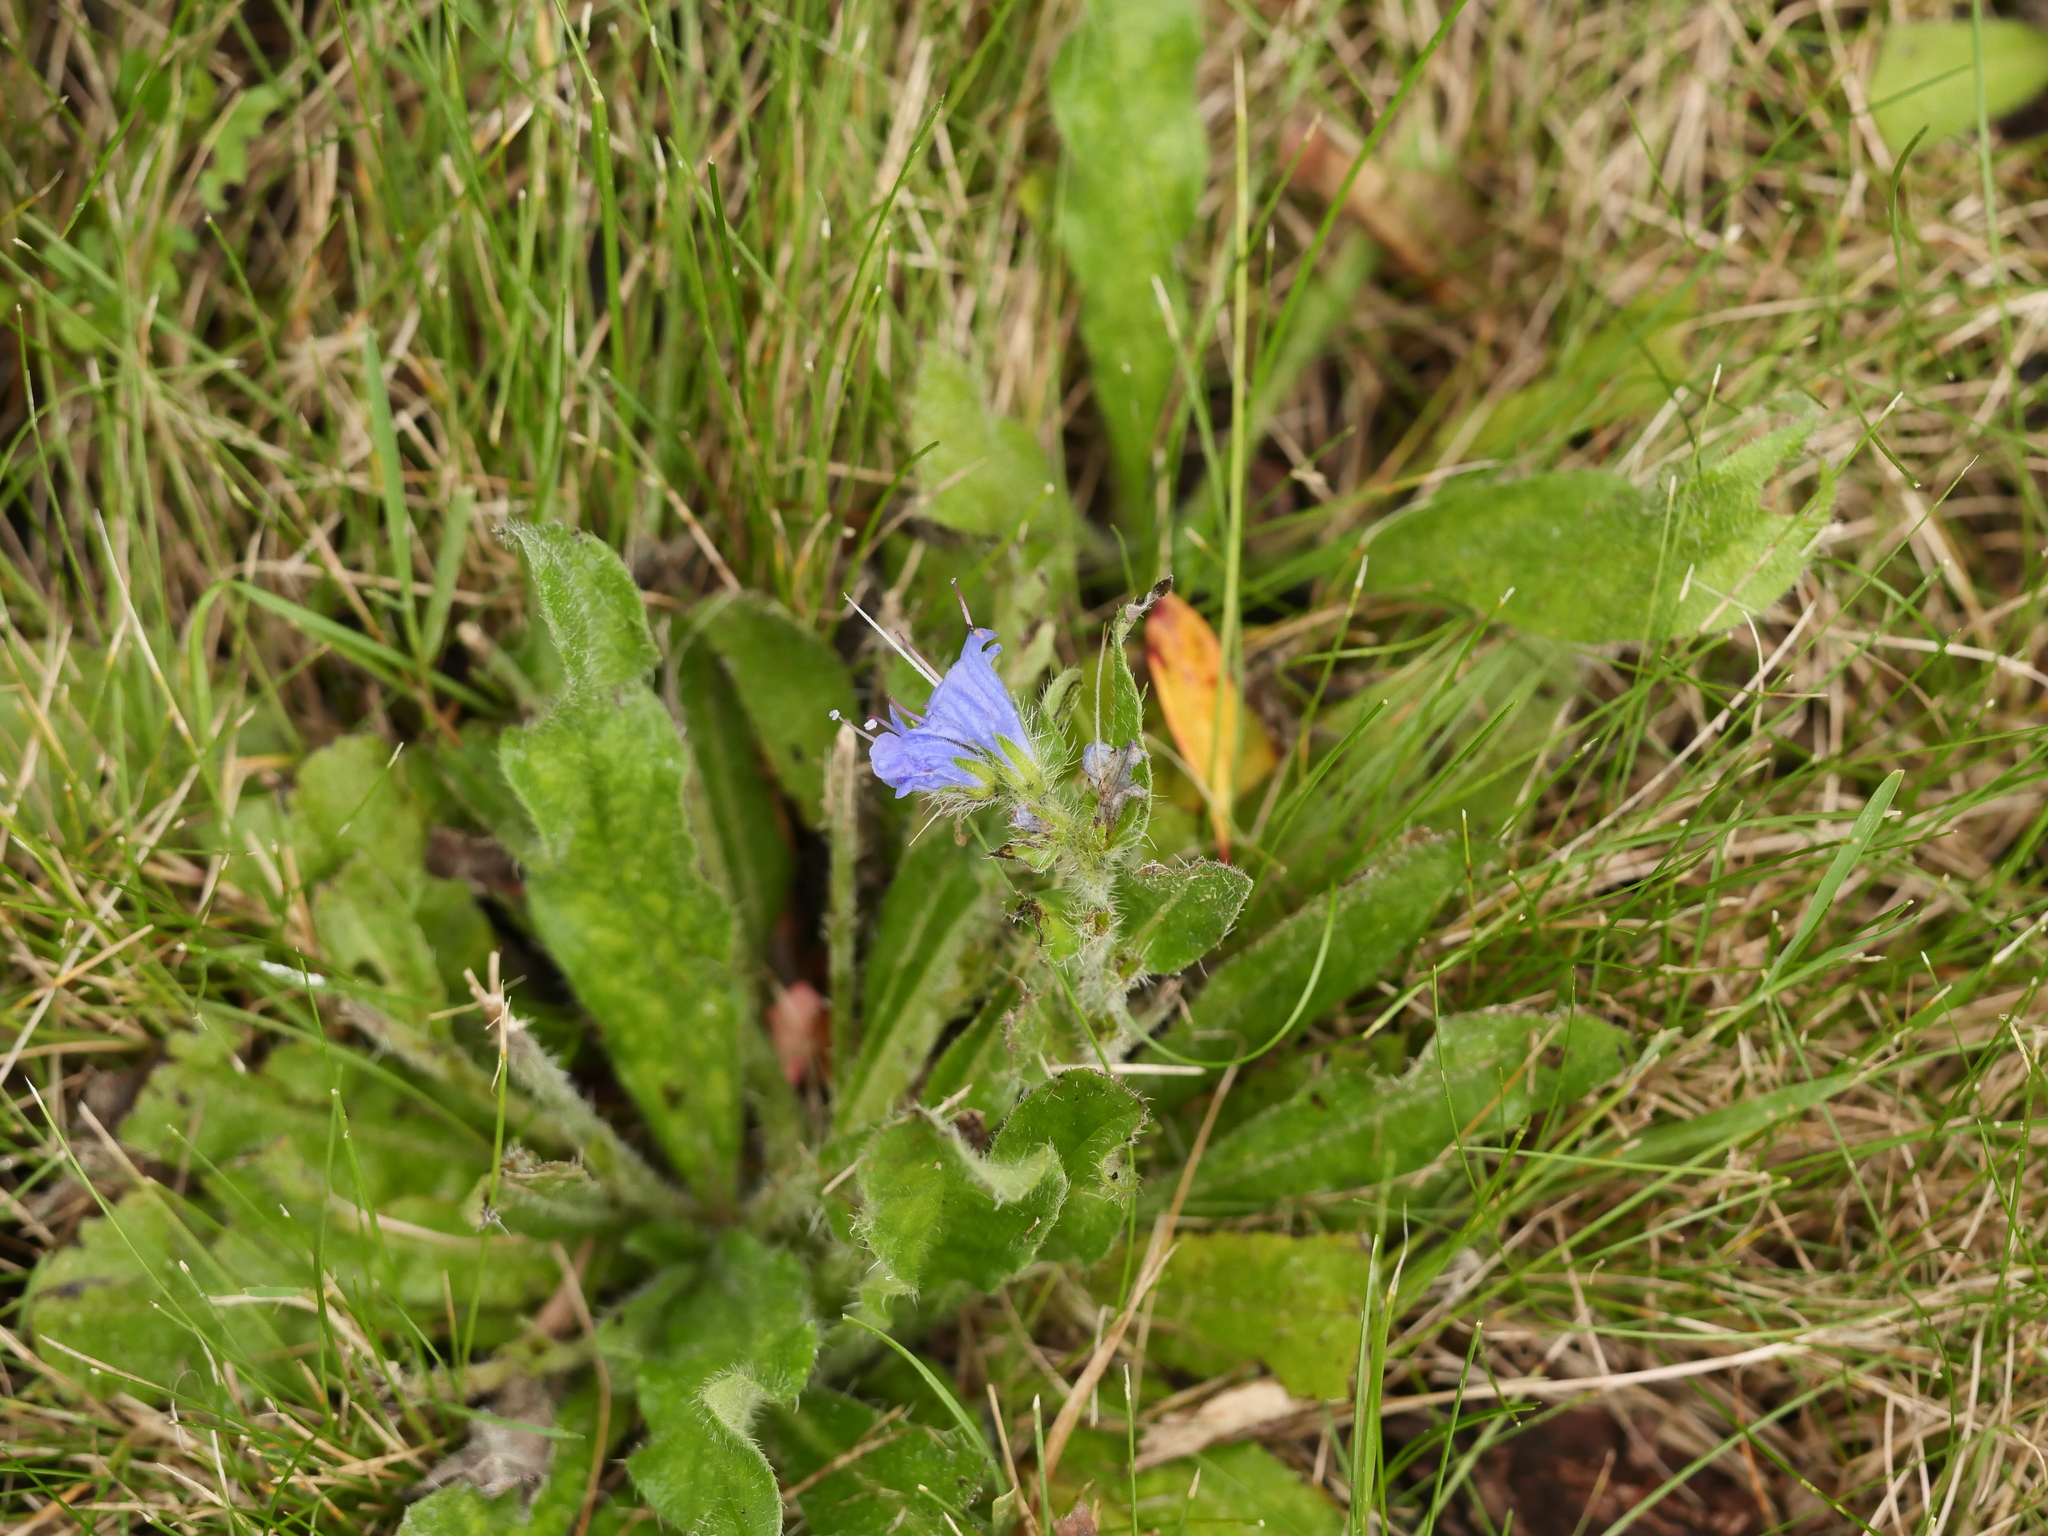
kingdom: Plantae
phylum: Tracheophyta
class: Magnoliopsida
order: Boraginales
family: Boraginaceae
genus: Echium
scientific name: Echium vulgare
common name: Common viper's bugloss
